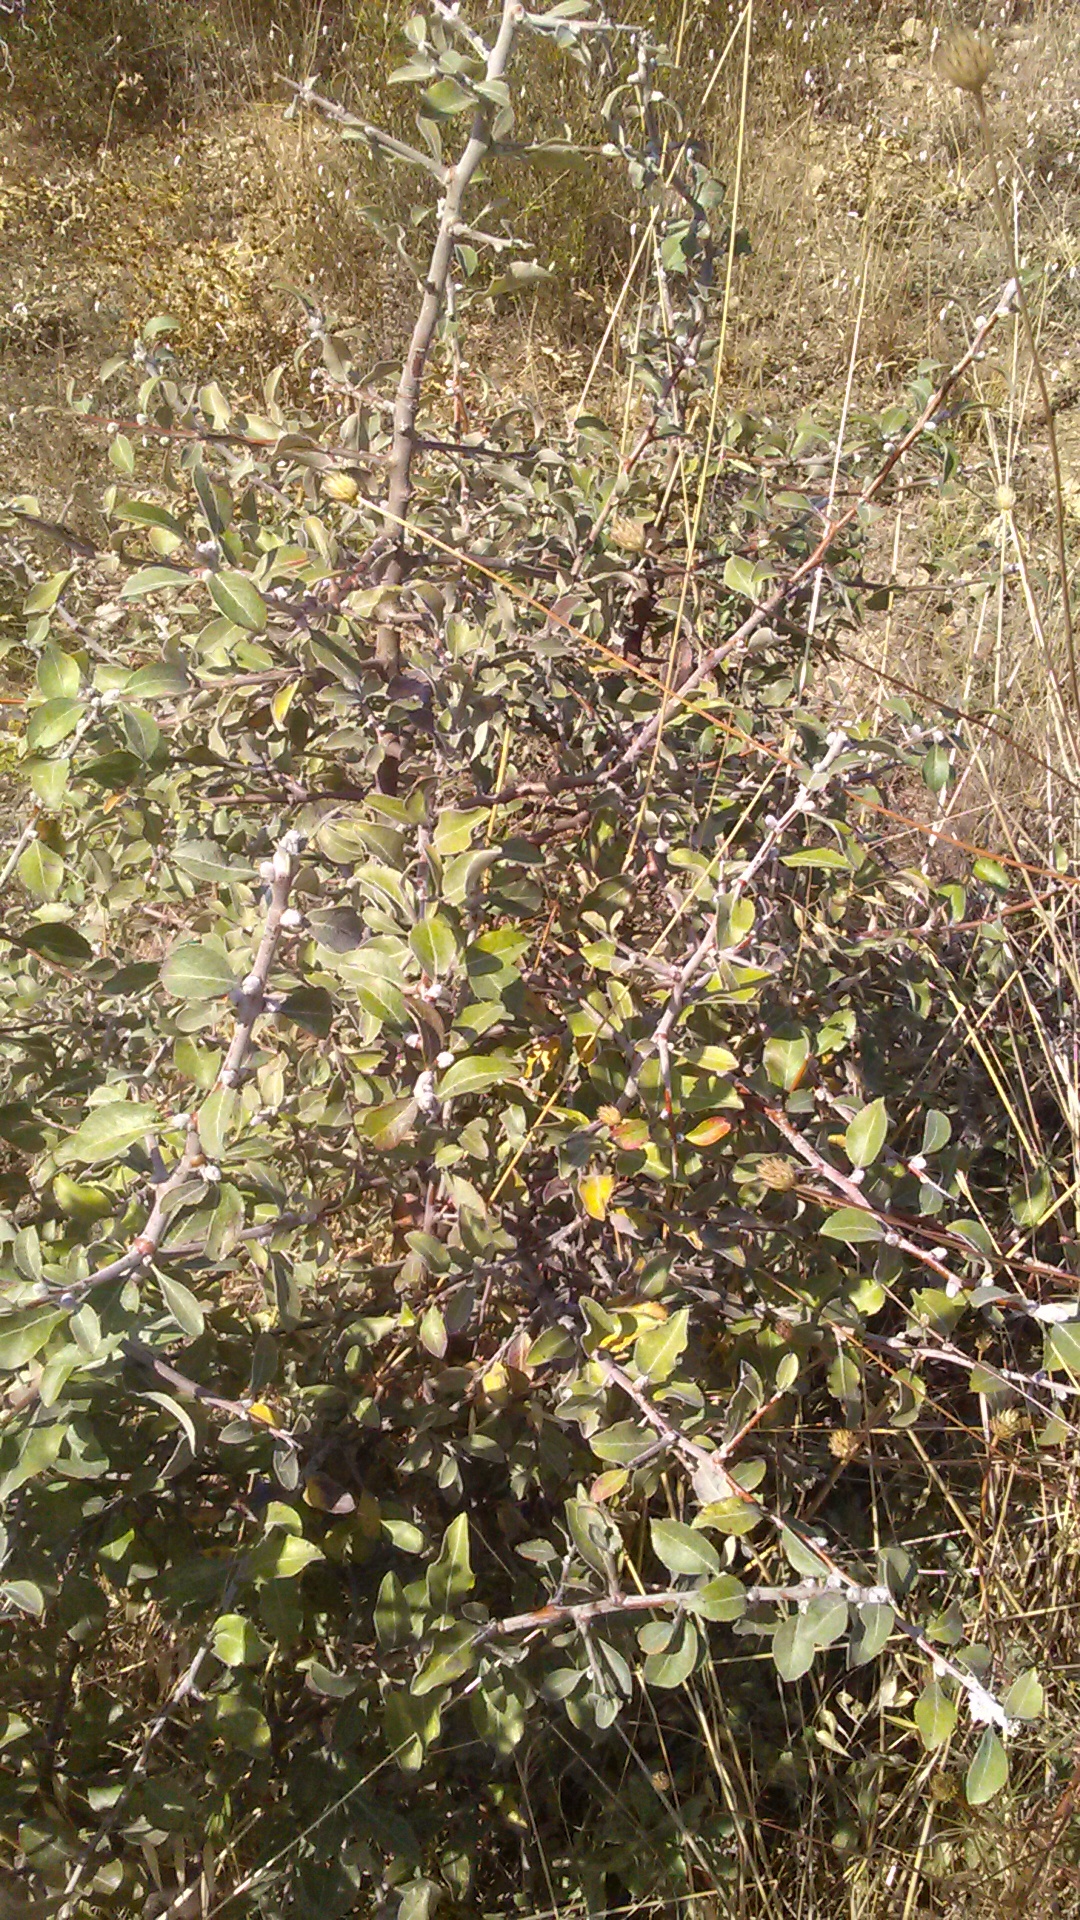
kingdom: Plantae
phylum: Tracheophyta
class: Magnoliopsida
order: Rosales
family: Rosaceae
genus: Pyrus
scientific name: Pyrus elaeagrifolia
